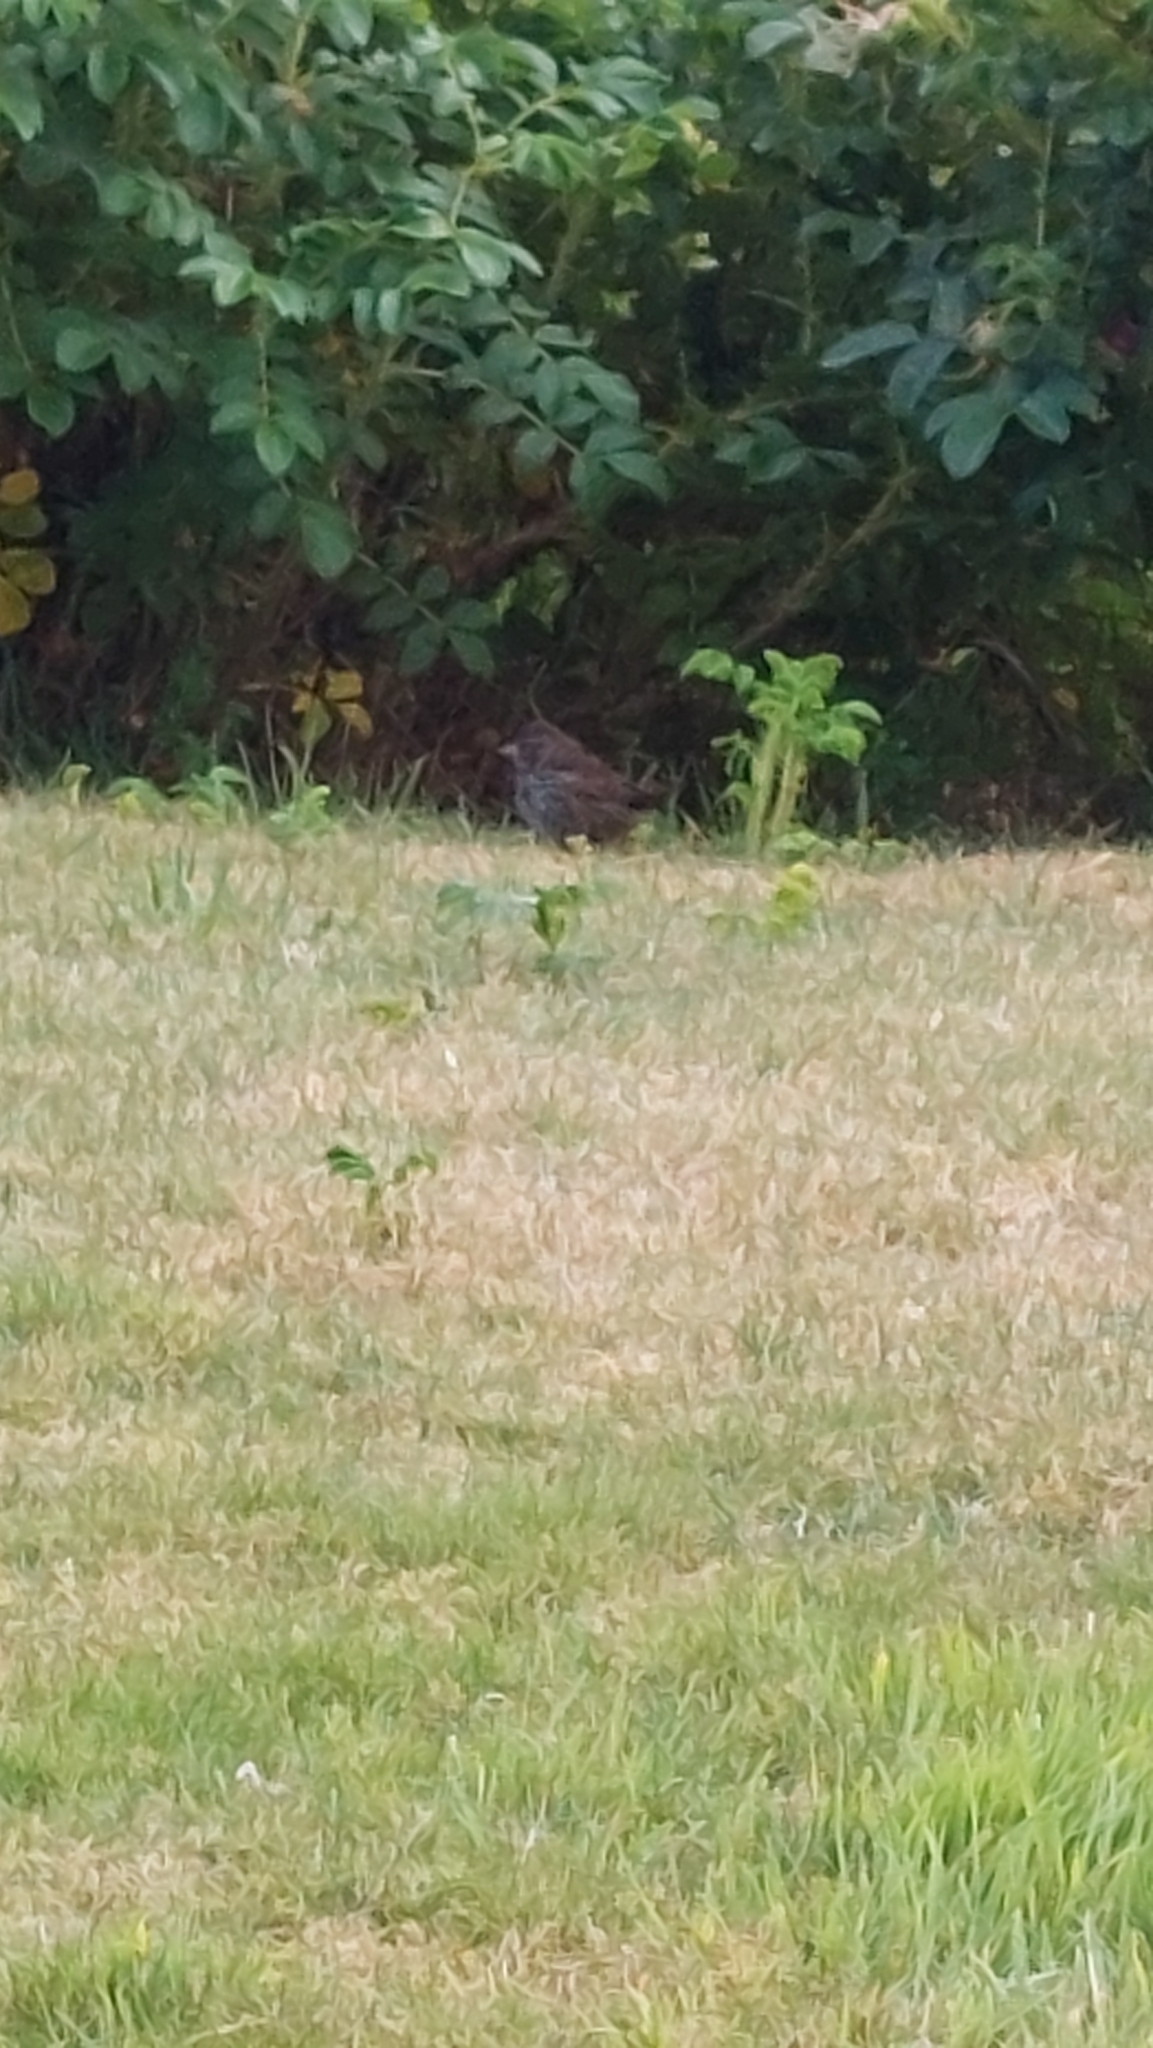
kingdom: Animalia
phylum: Chordata
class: Aves
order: Passeriformes
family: Passerellidae
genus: Melospiza
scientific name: Melospiza melodia
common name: Song sparrow
